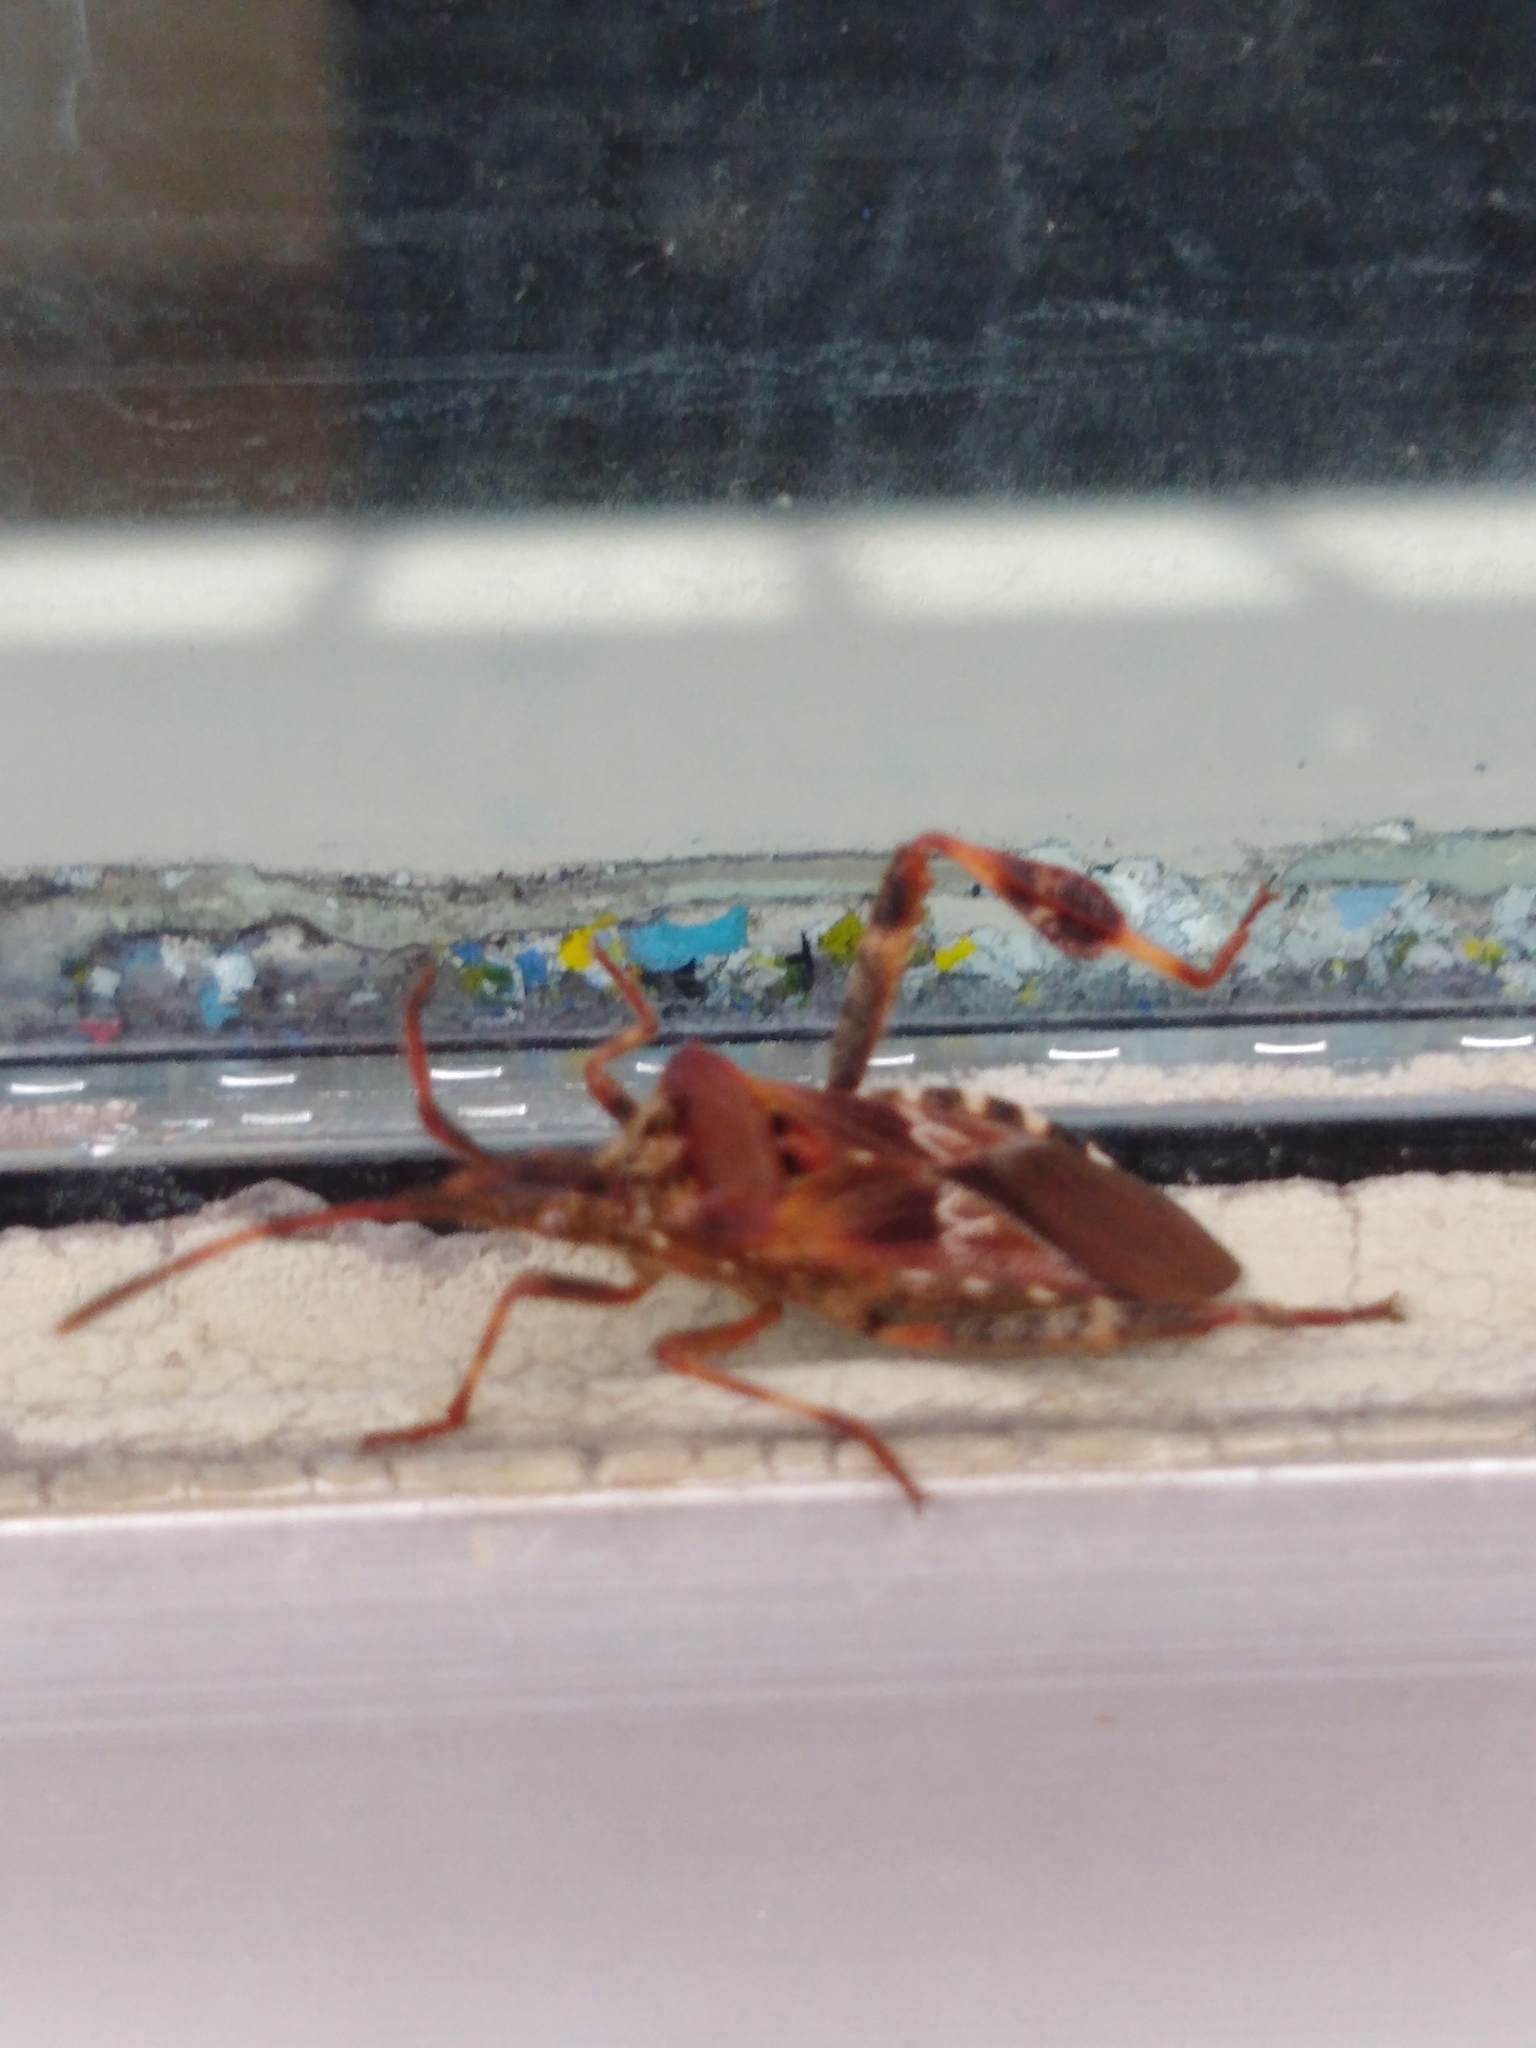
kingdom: Animalia
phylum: Arthropoda
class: Insecta
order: Hemiptera
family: Coreidae
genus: Leptoglossus
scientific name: Leptoglossus occidentalis
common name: Western conifer-seed bug
